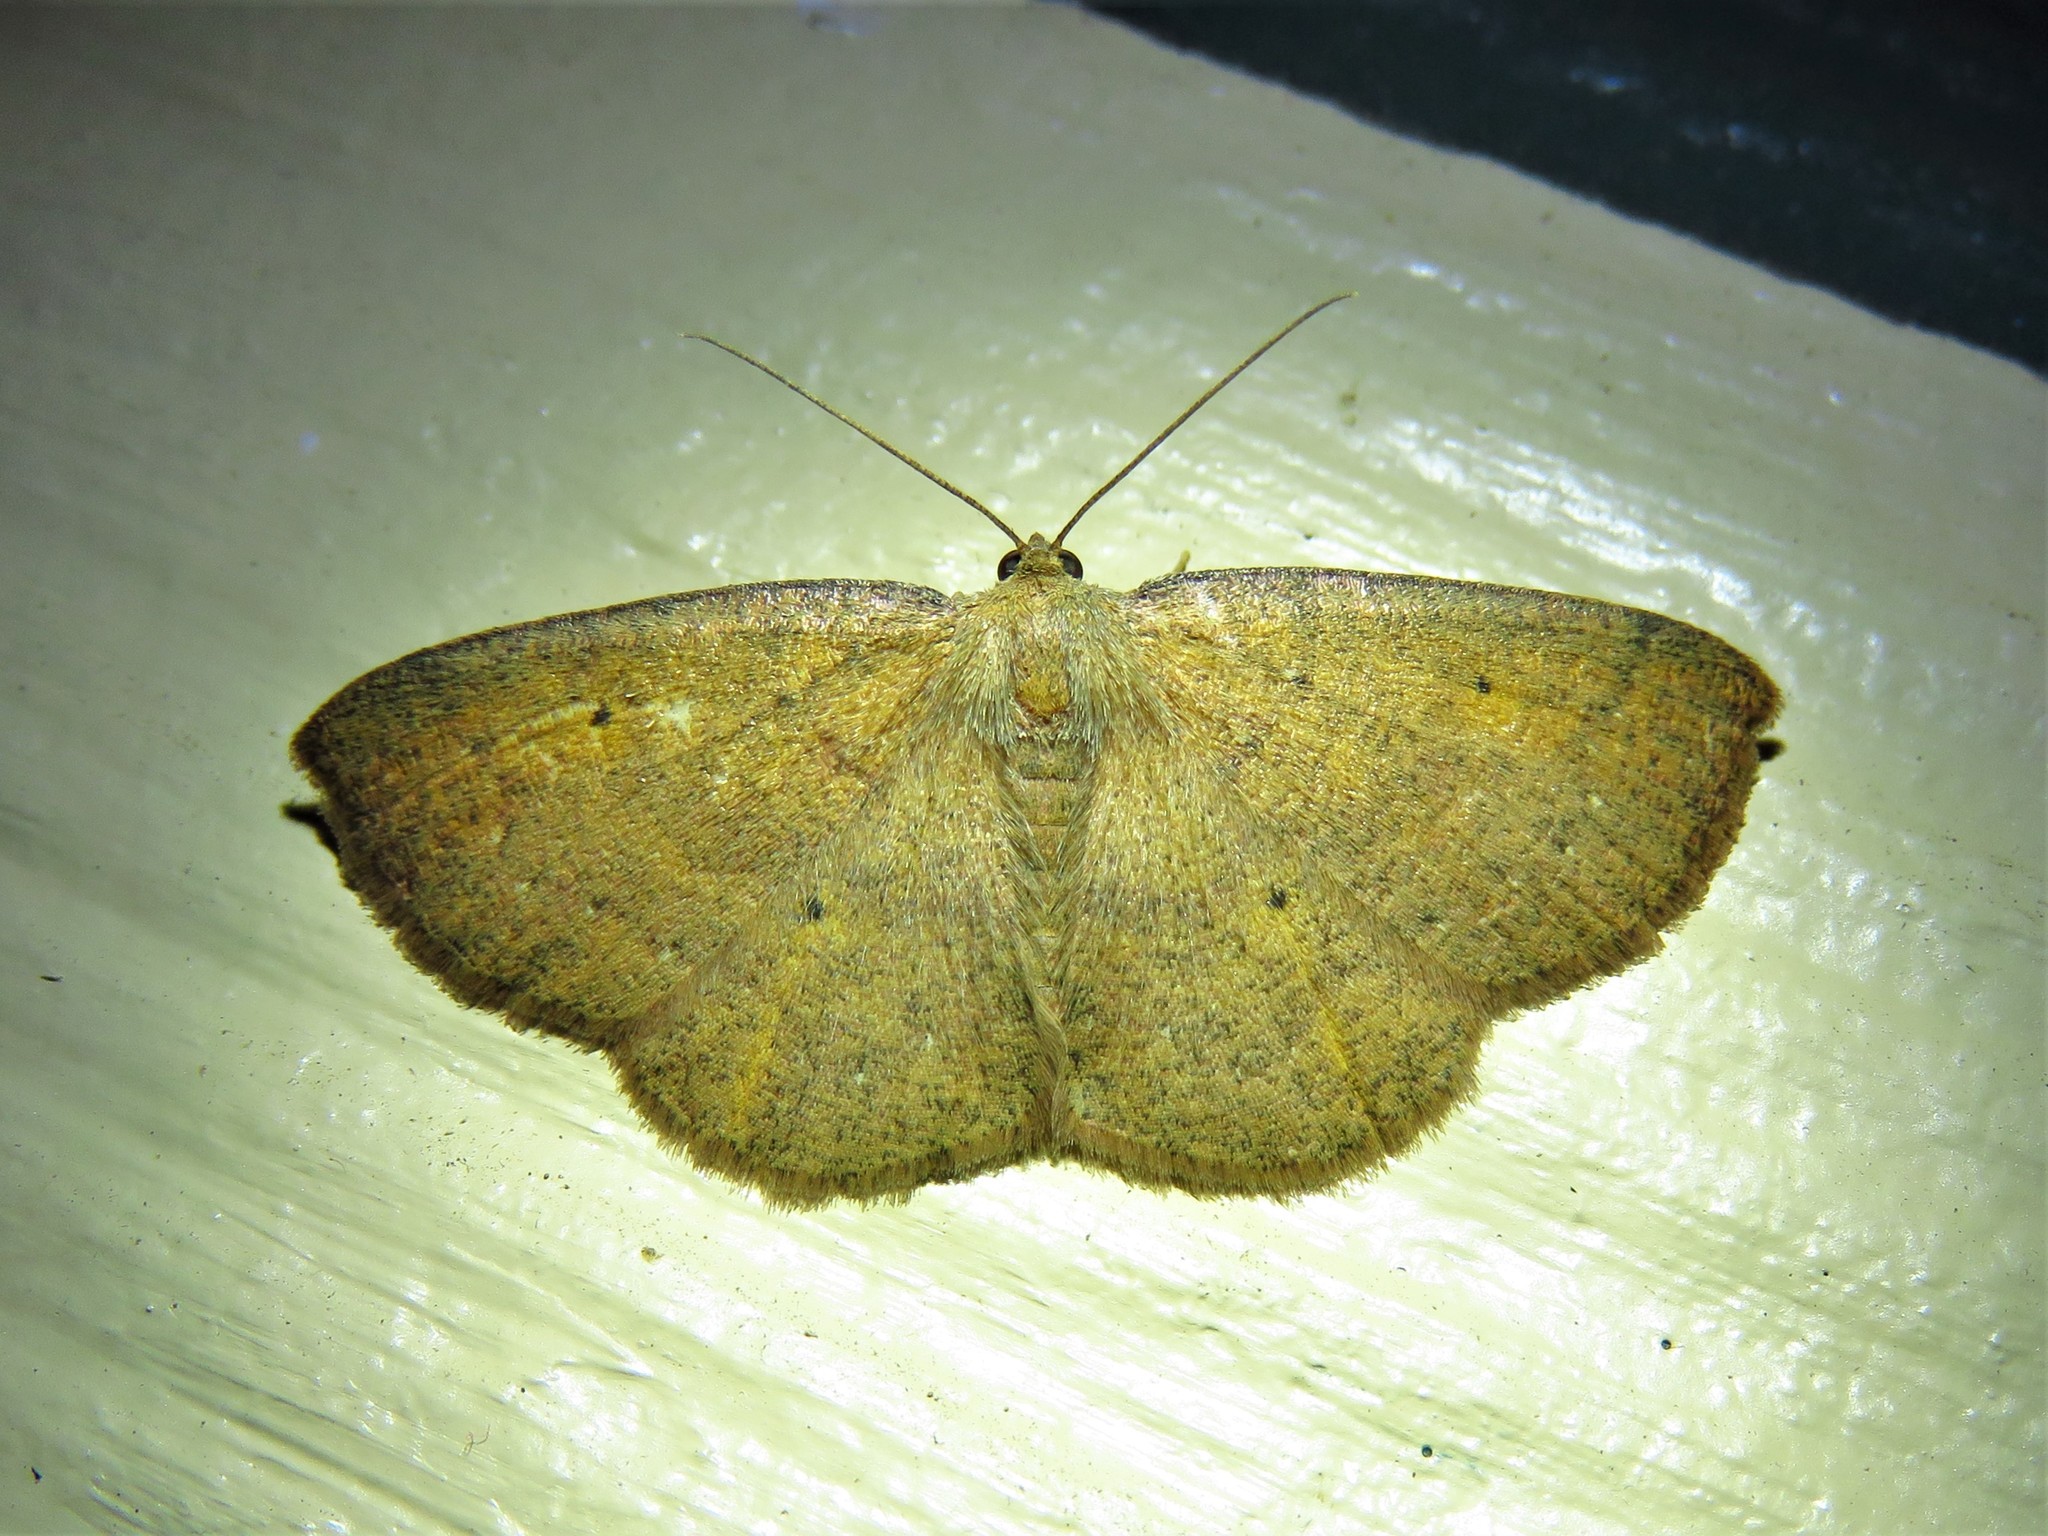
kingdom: Animalia
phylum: Arthropoda
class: Insecta
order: Lepidoptera
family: Geometridae
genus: Ilexia
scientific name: Ilexia intractata
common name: Black-dotted ruddy moth
